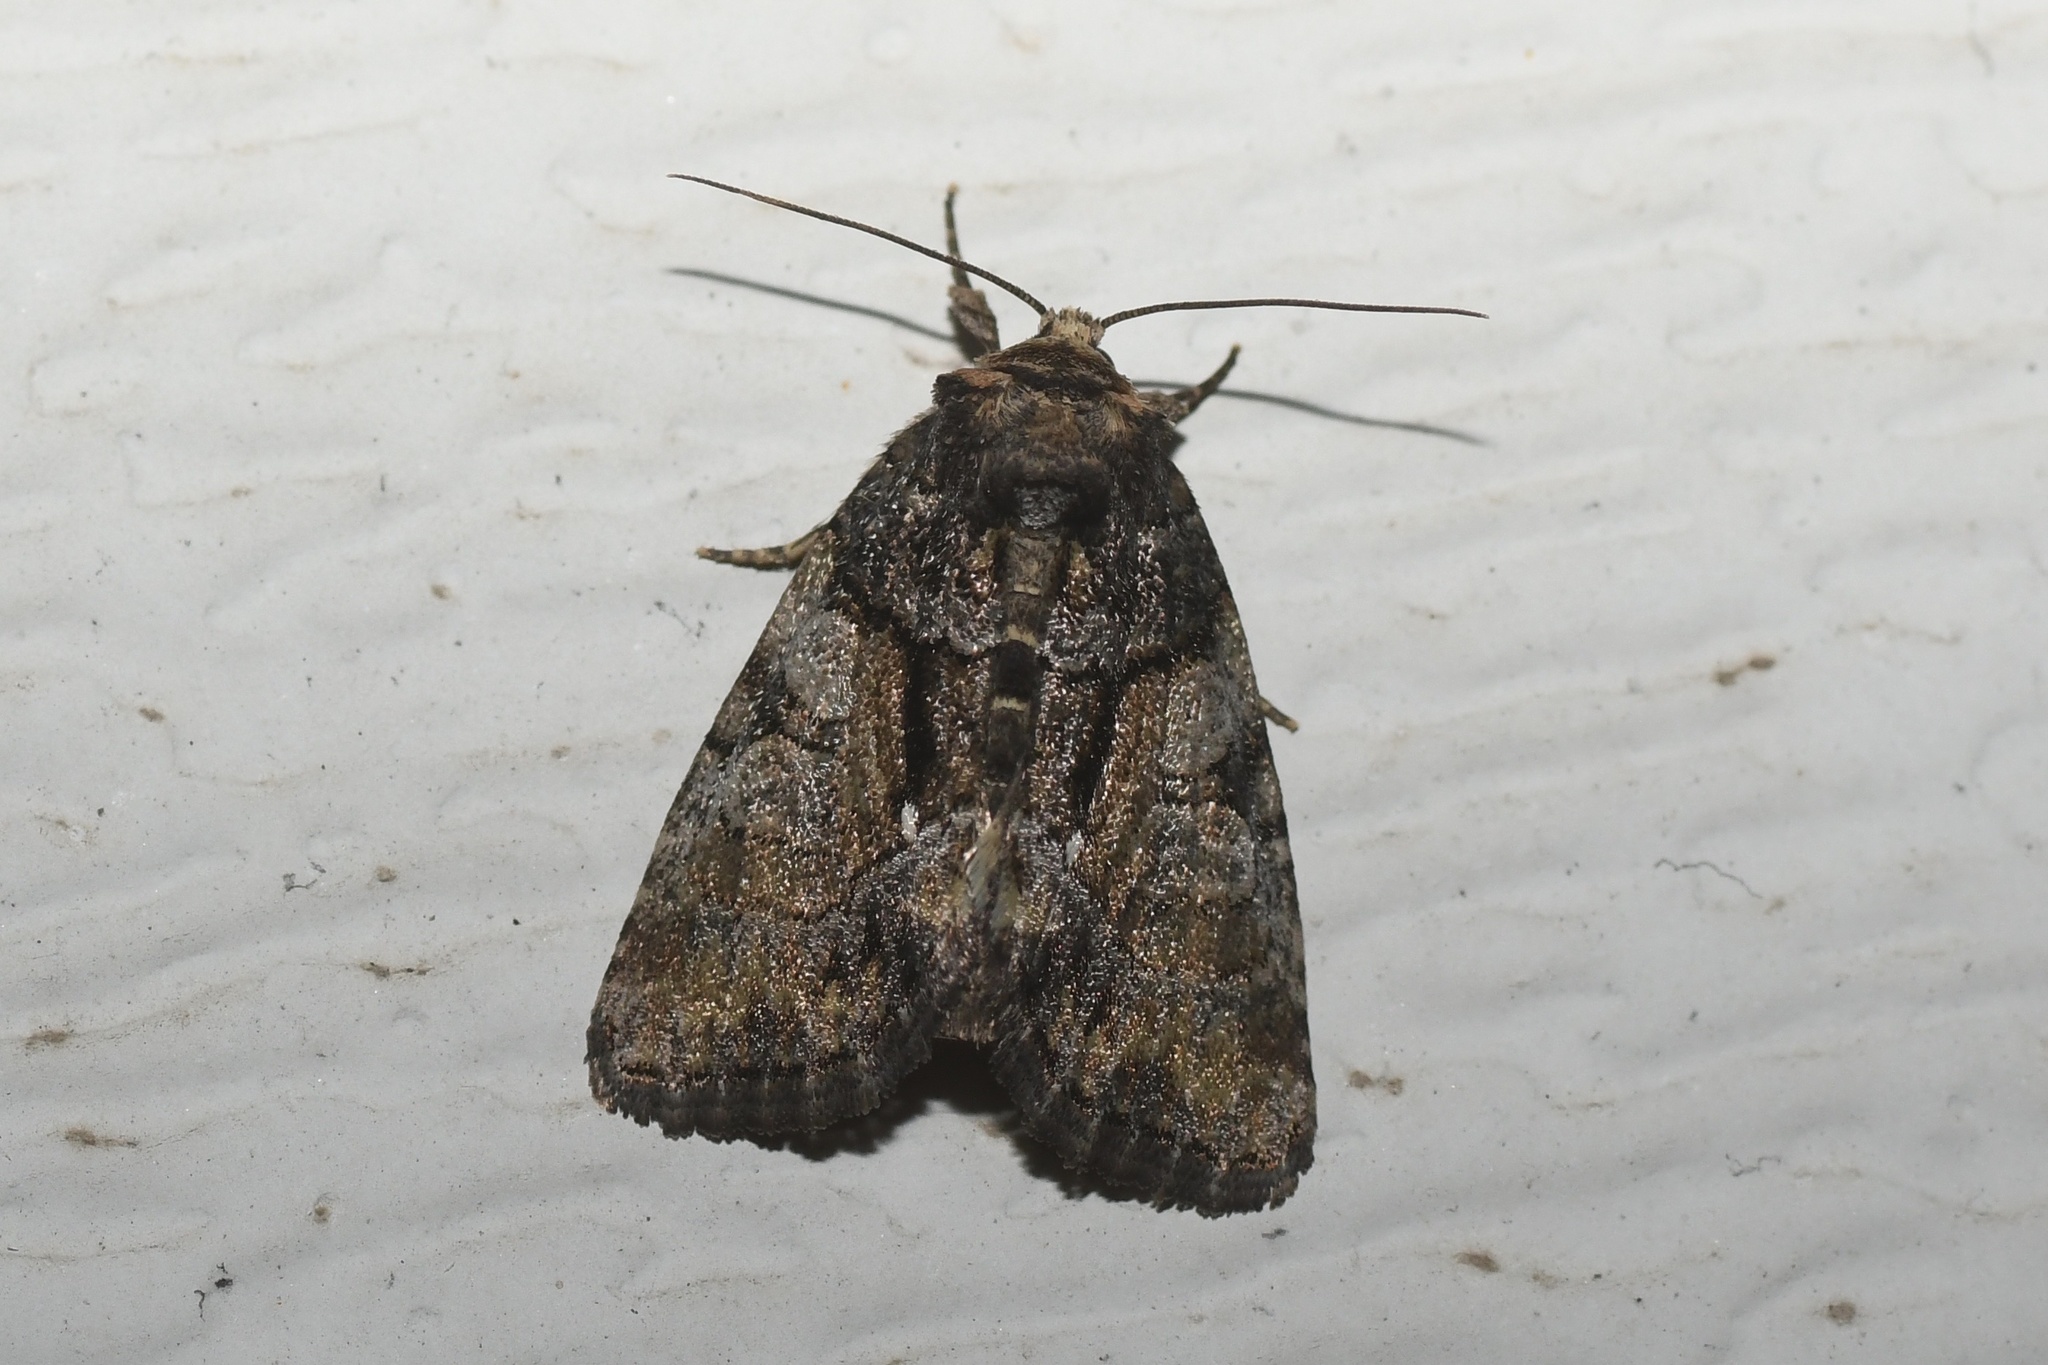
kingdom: Animalia
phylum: Arthropoda
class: Insecta
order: Lepidoptera
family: Noctuidae
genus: Chytonix
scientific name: Chytonix palliatricula
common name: Cloaked marvel
